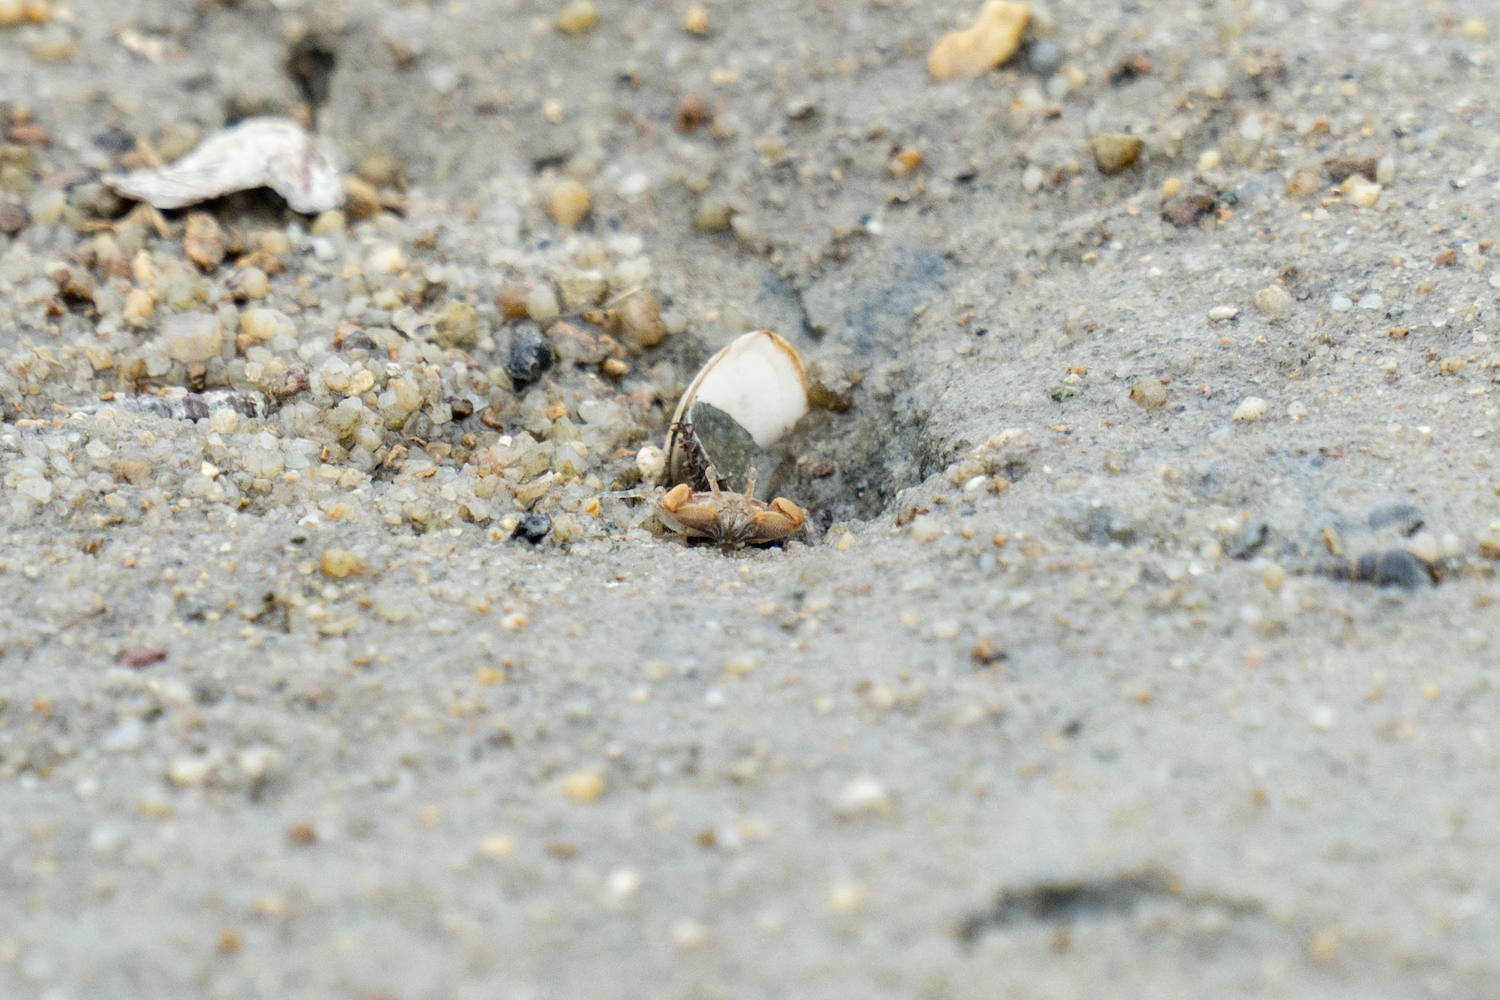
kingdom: Animalia
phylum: Arthropoda
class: Malacostraca
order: Decapoda
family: Dotillidae
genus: Tmethypocoelis
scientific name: Tmethypocoelis ceratophora
